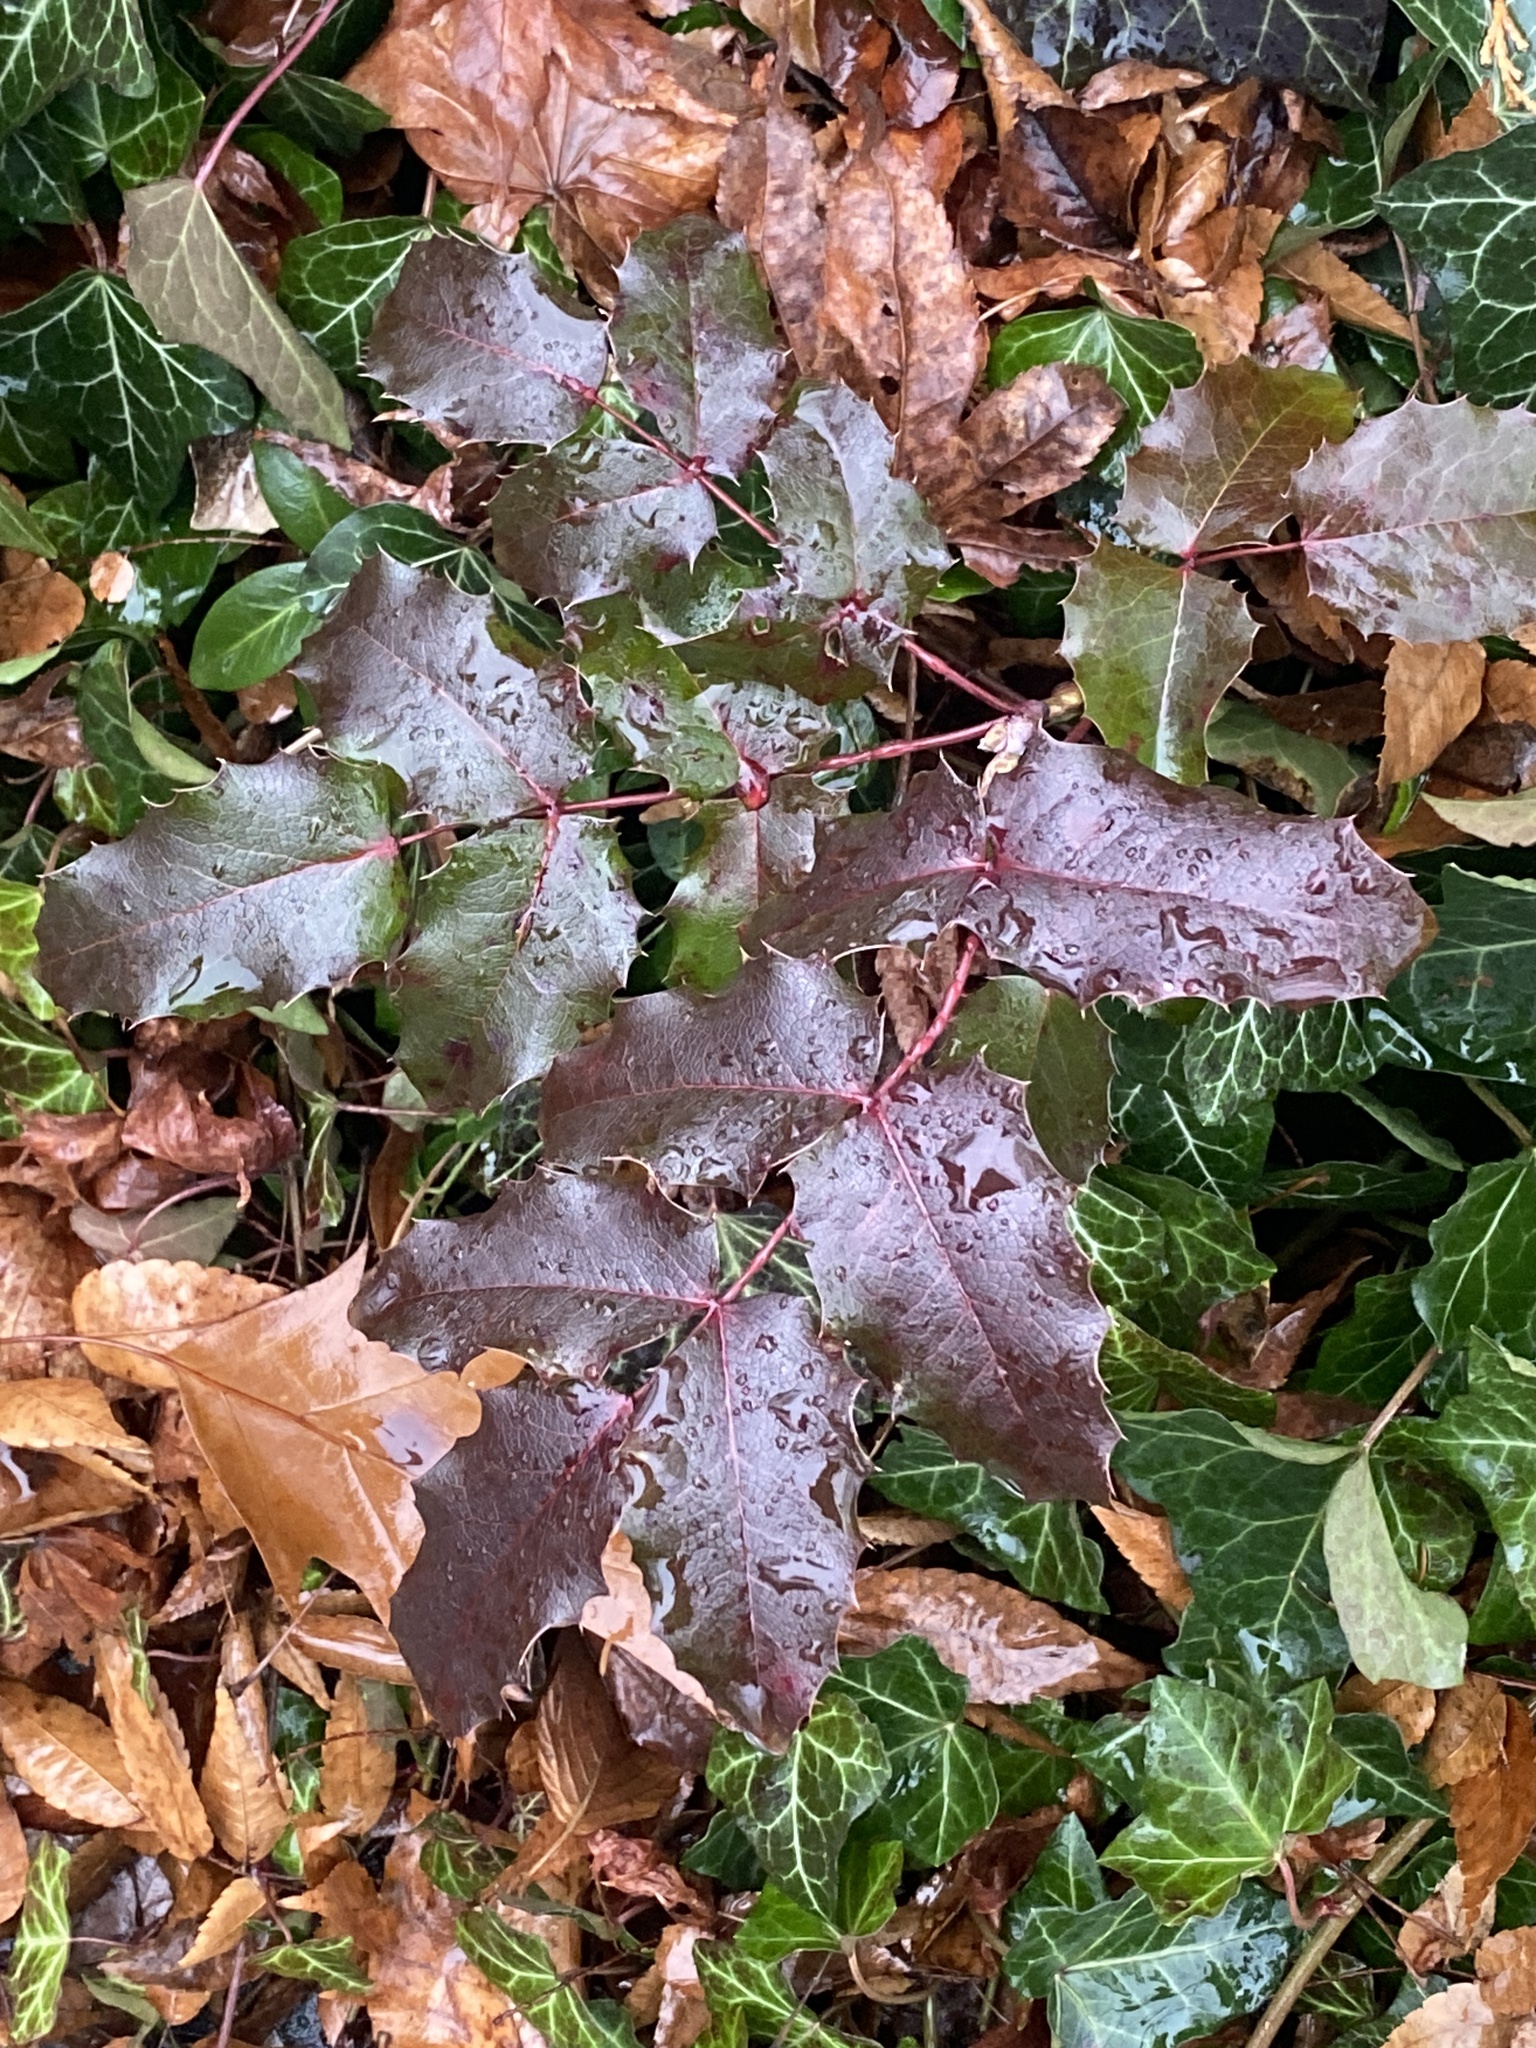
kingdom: Plantae
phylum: Tracheophyta
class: Magnoliopsida
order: Ranunculales
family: Berberidaceae
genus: Mahonia
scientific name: Mahonia aquifolium
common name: Oregon-grape
